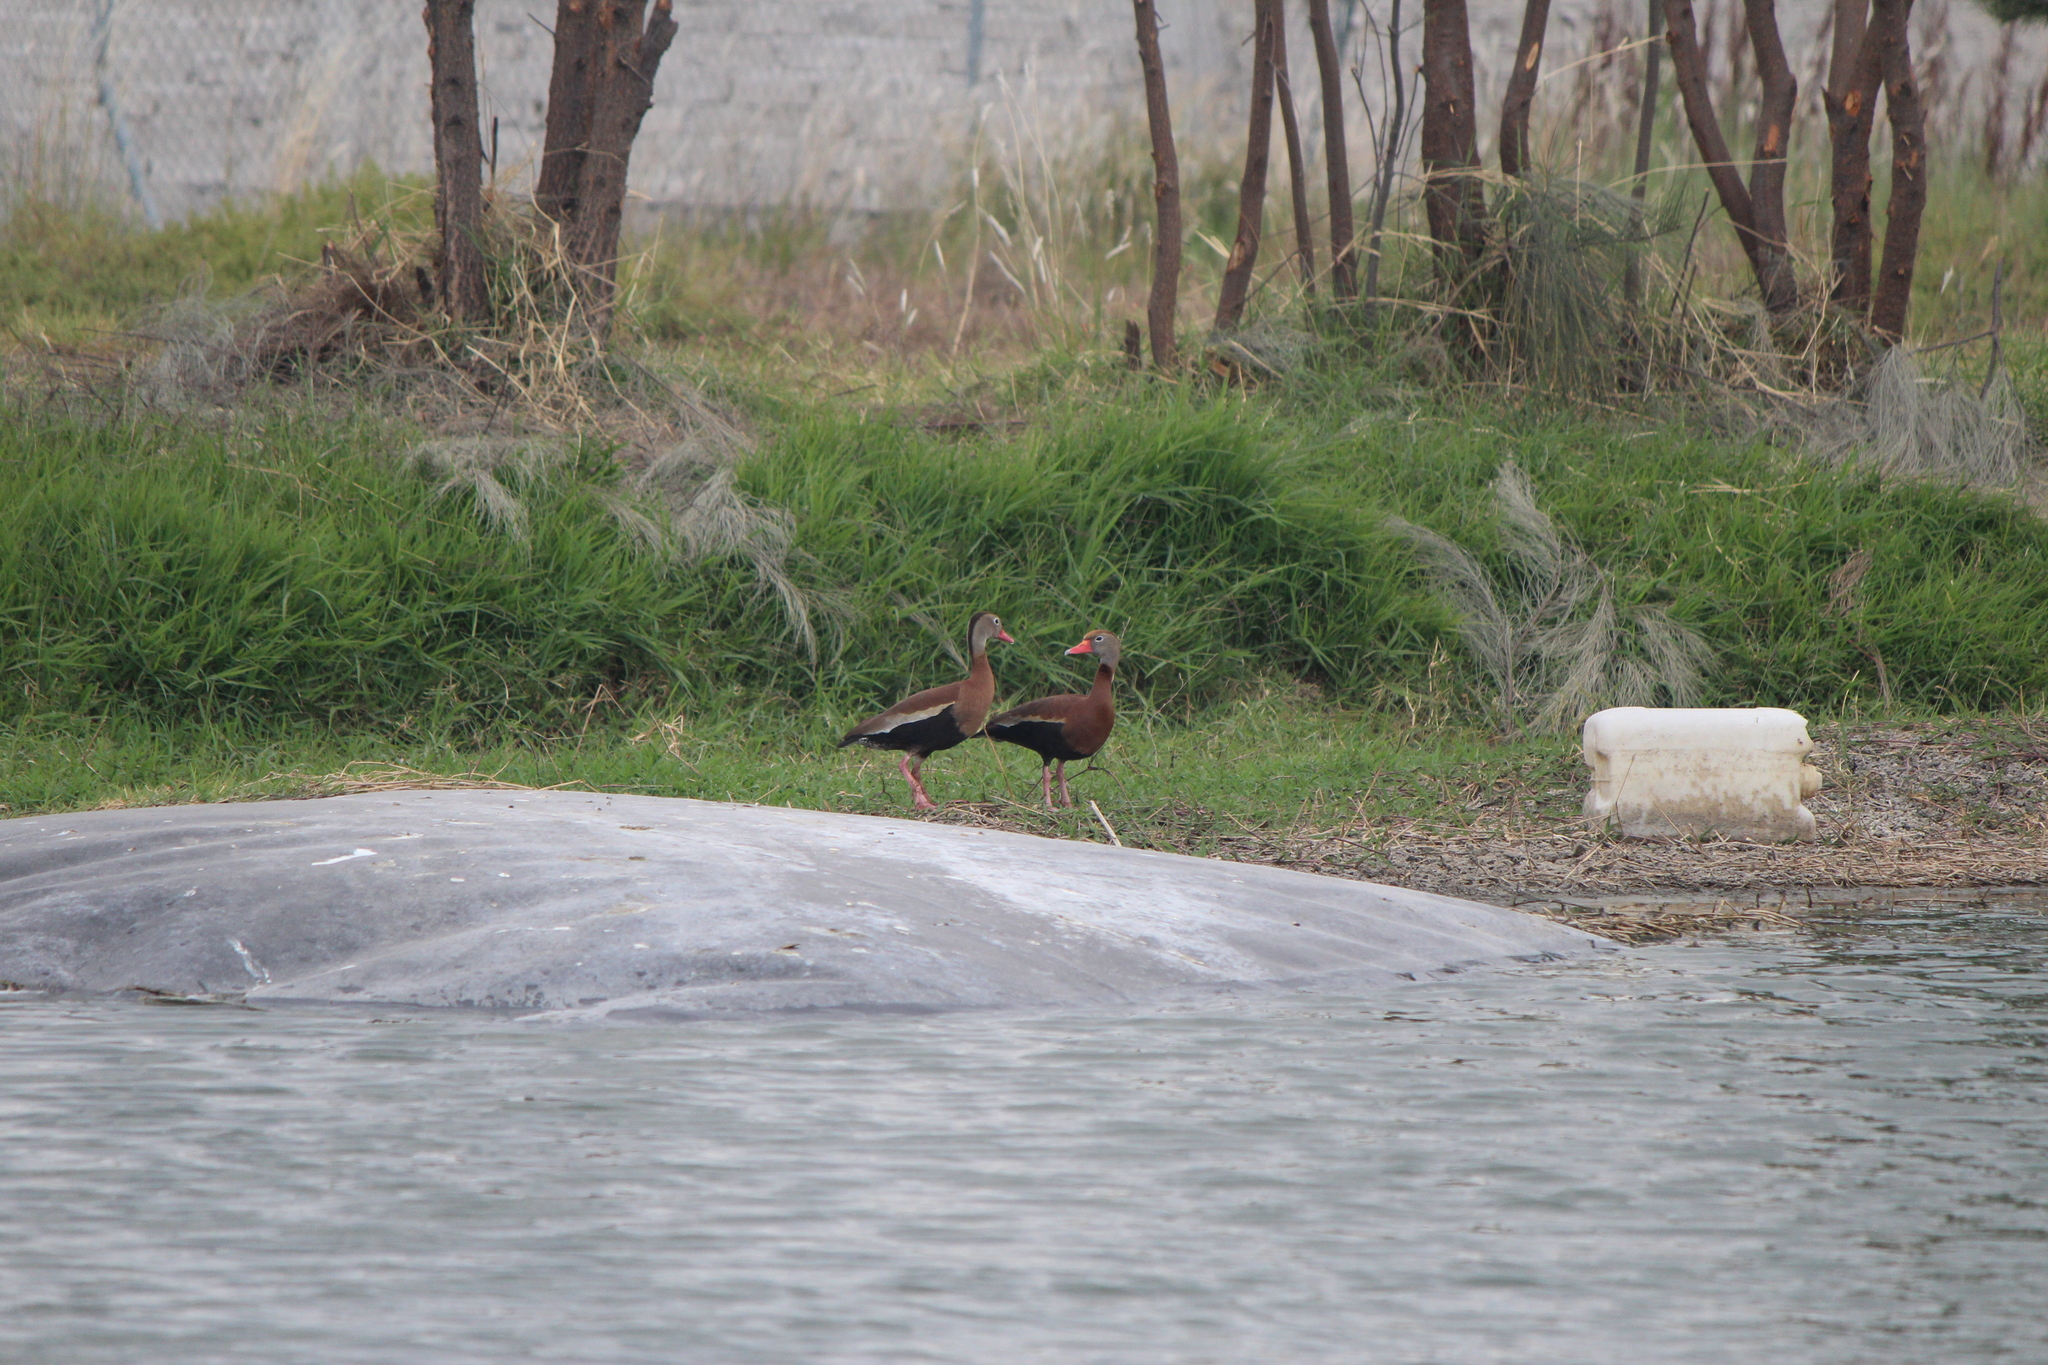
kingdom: Animalia
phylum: Chordata
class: Aves
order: Anseriformes
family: Anatidae
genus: Dendrocygna
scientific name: Dendrocygna autumnalis
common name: Black-bellied whistling duck
